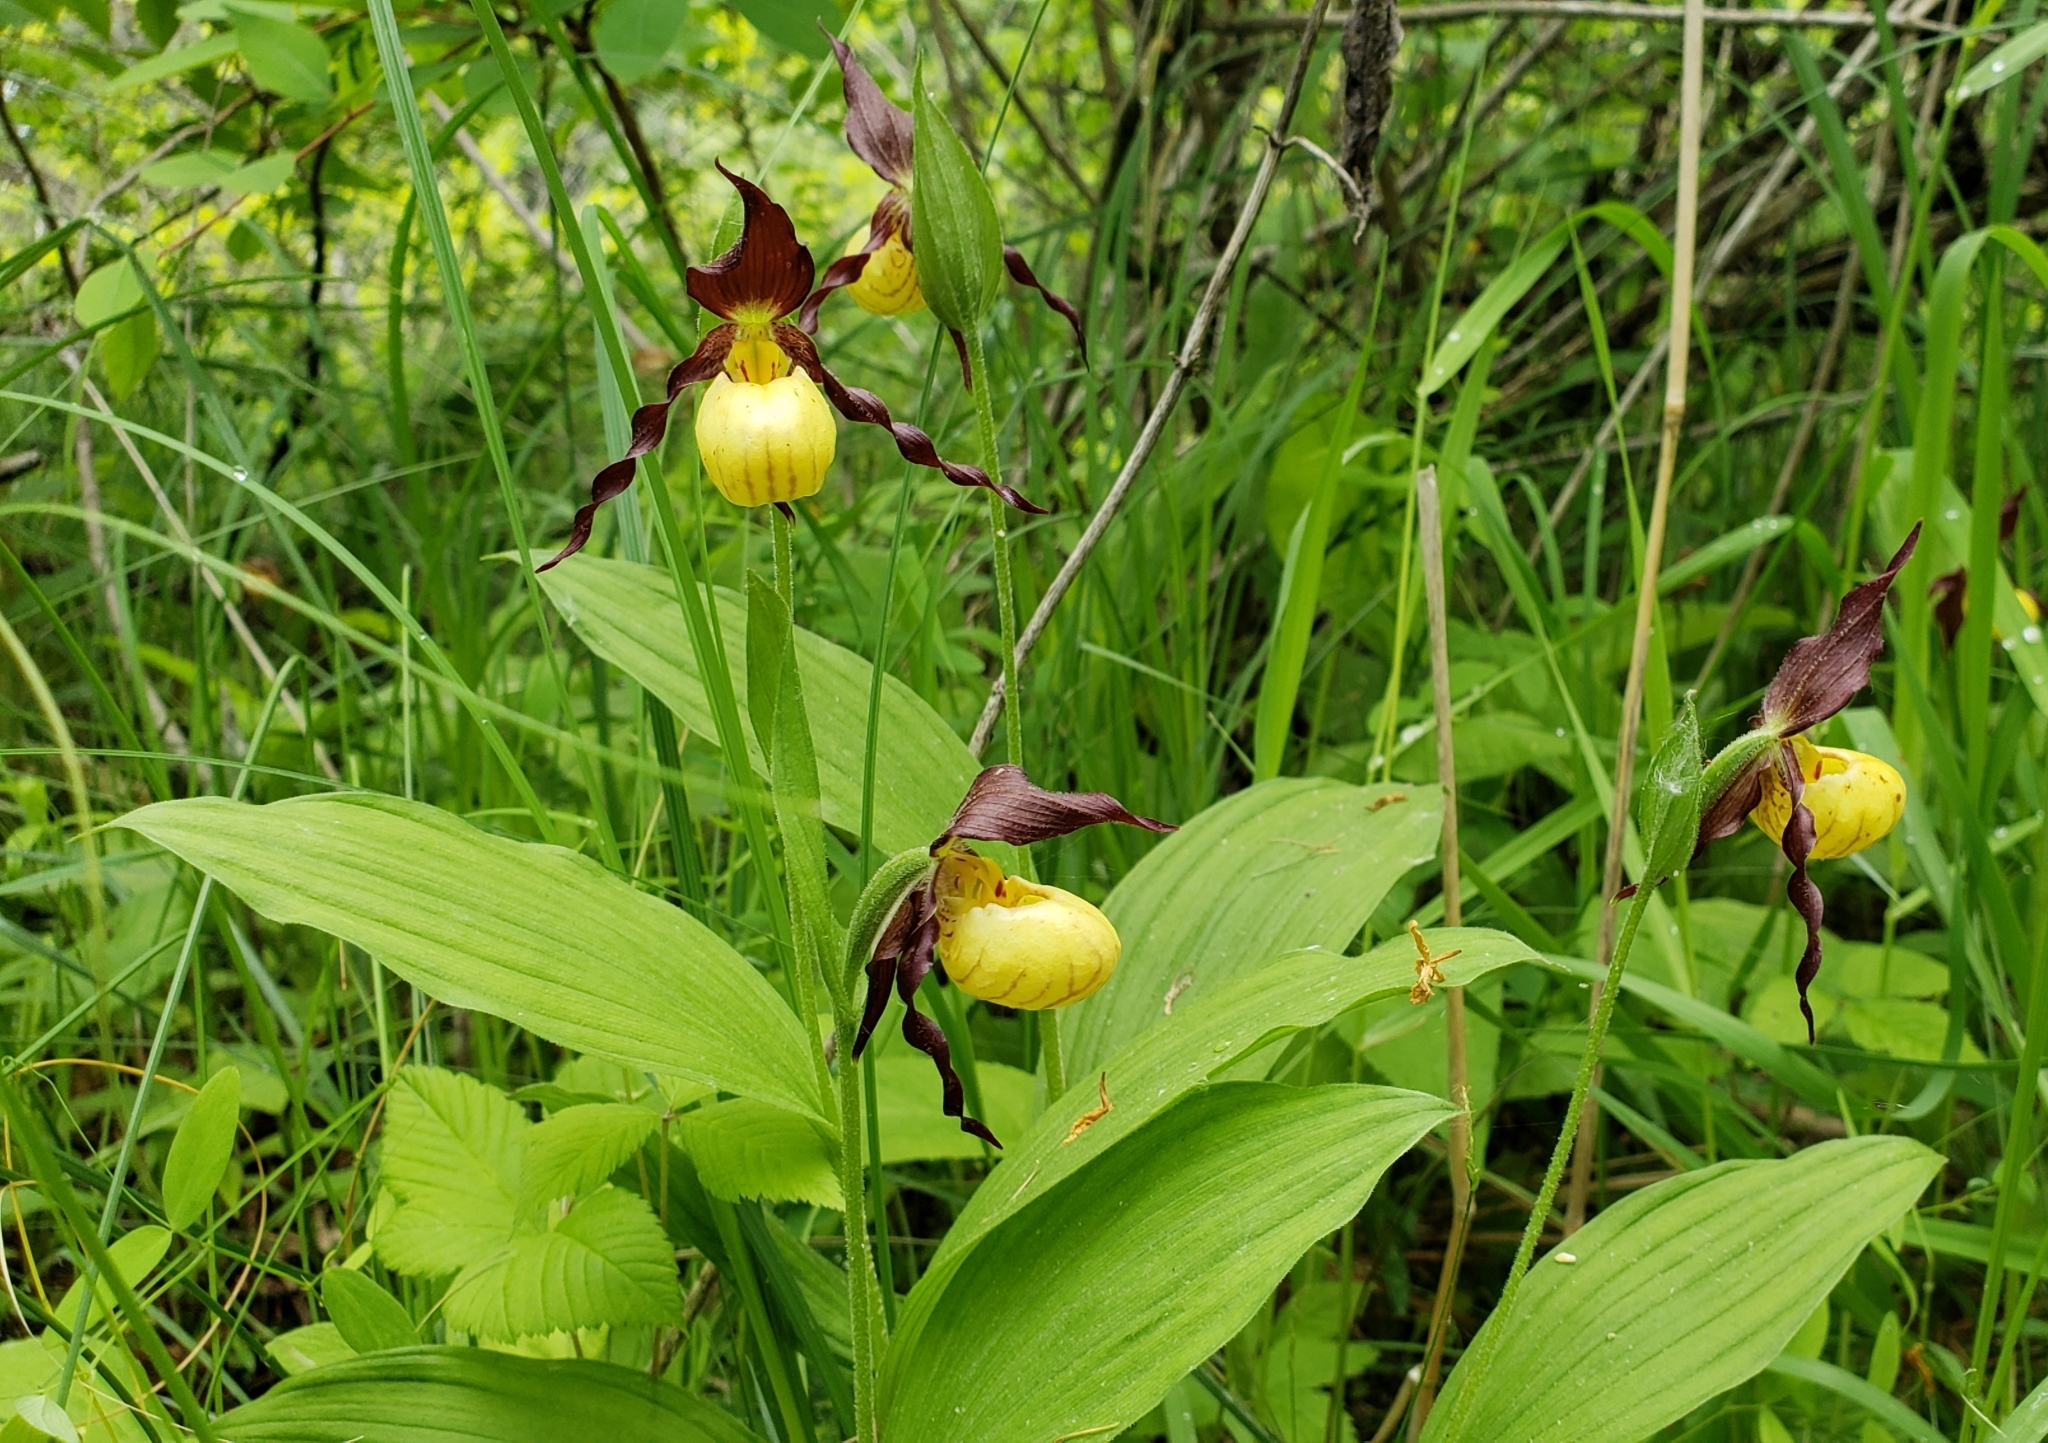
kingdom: Plantae
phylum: Tracheophyta
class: Liliopsida
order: Asparagales
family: Orchidaceae
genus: Cypripedium
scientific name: Cypripedium parviflorum
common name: American yellow lady's-slipper
